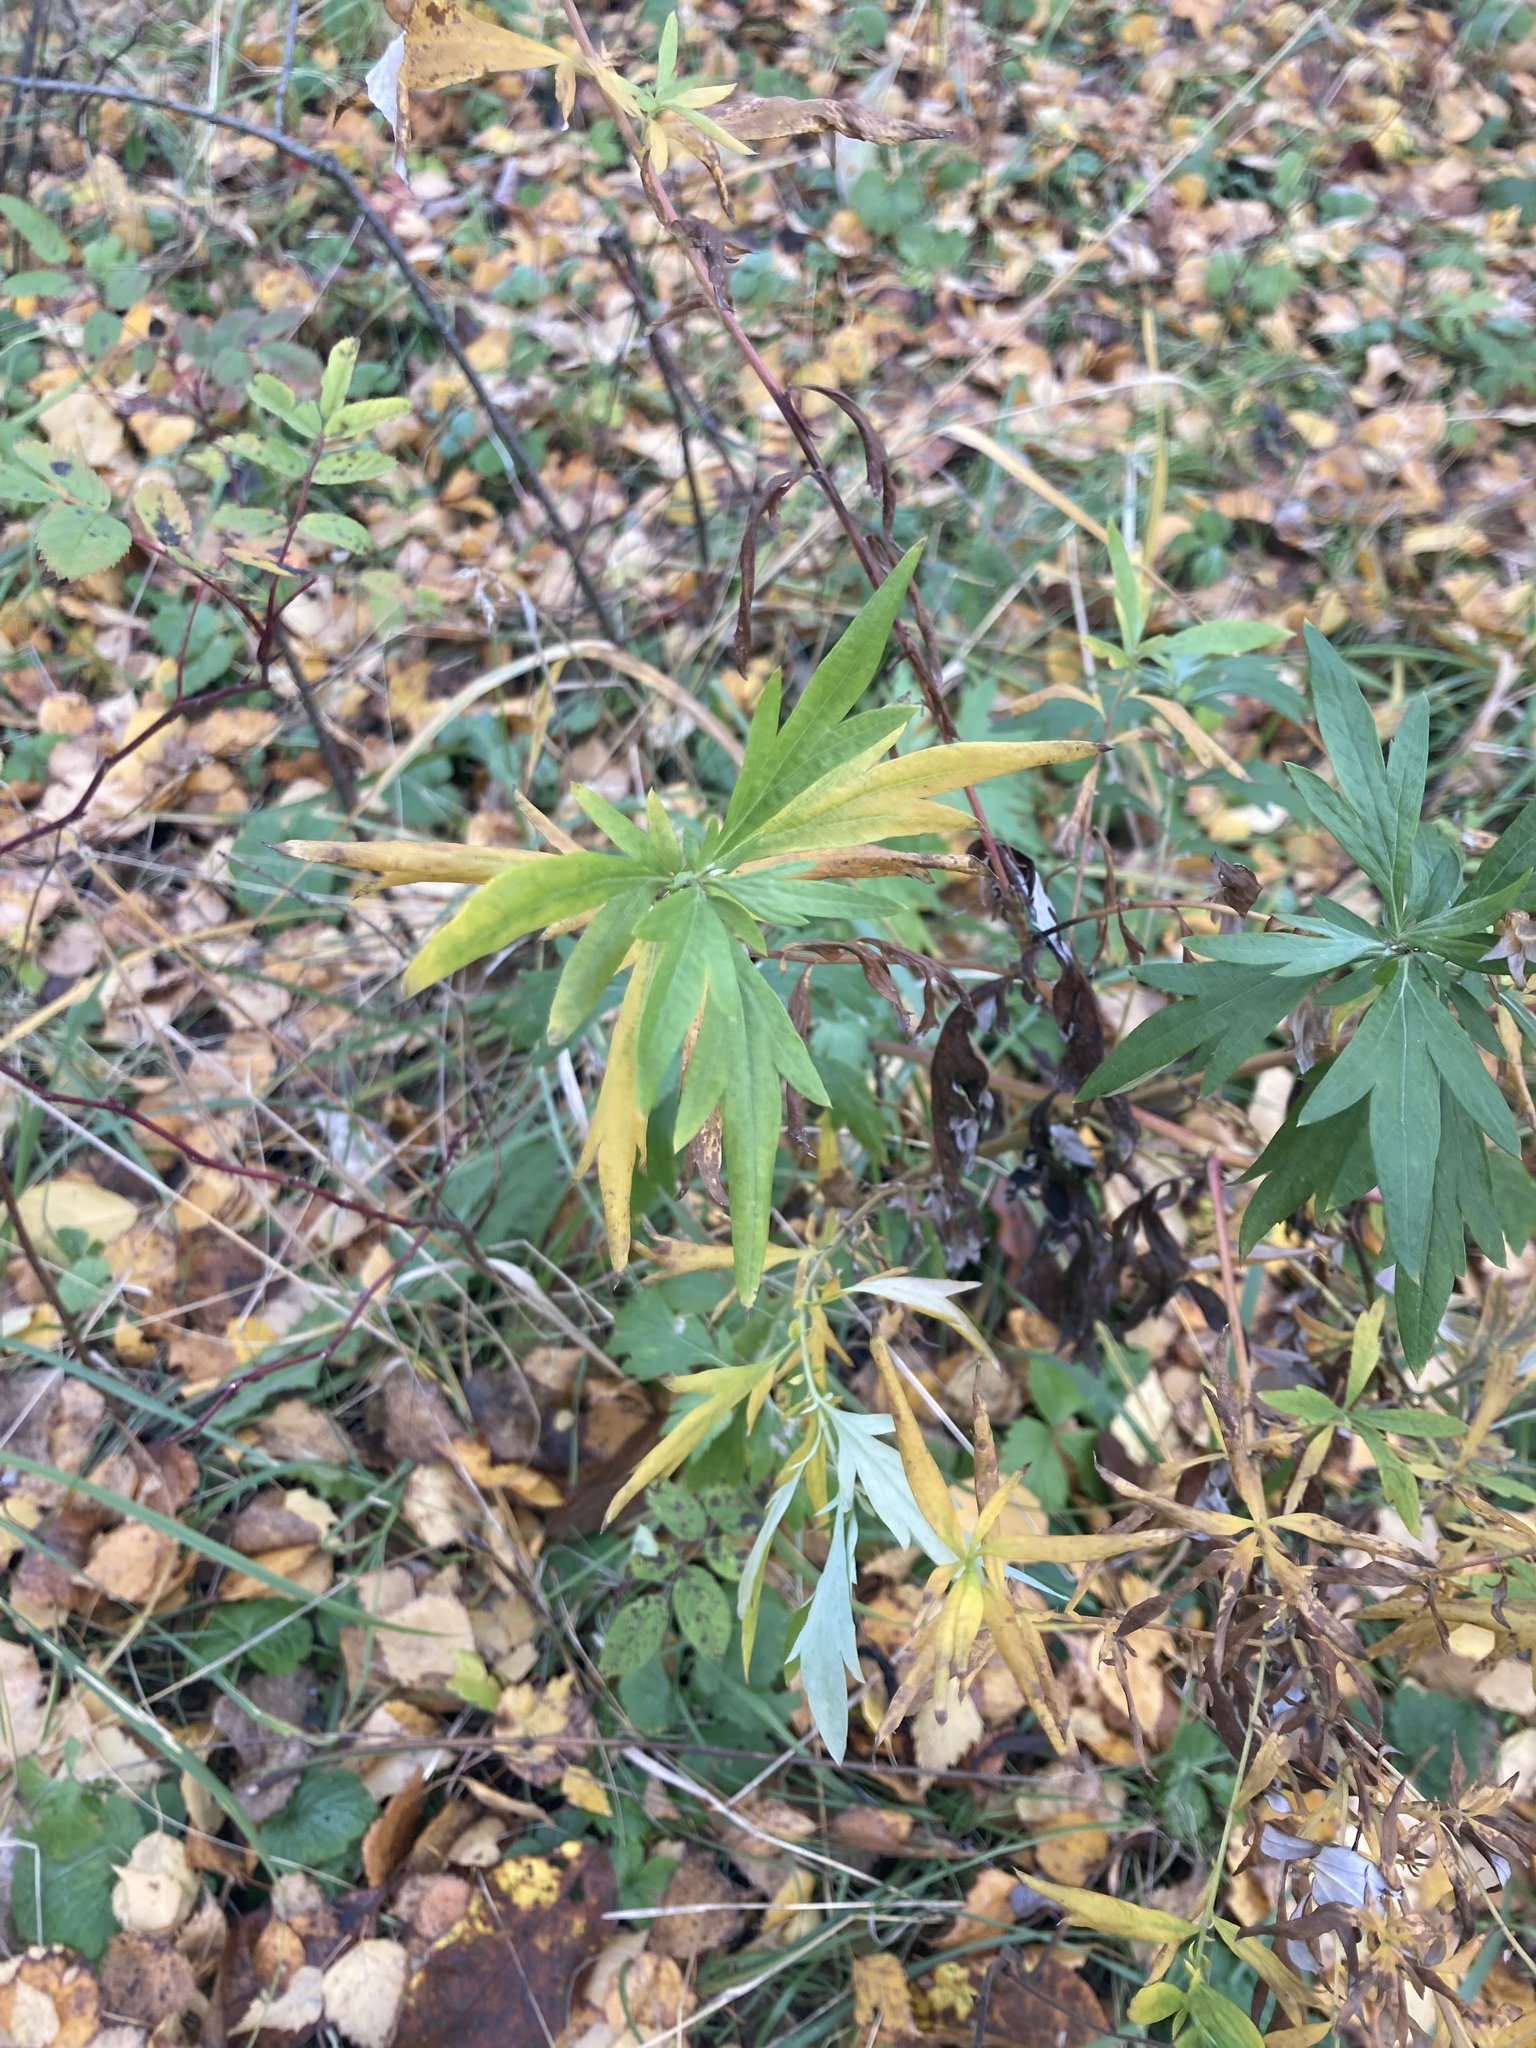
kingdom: Plantae
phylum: Tracheophyta
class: Magnoliopsida
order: Asterales
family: Asteraceae
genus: Artemisia
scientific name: Artemisia vulgaris
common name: Mugwort
